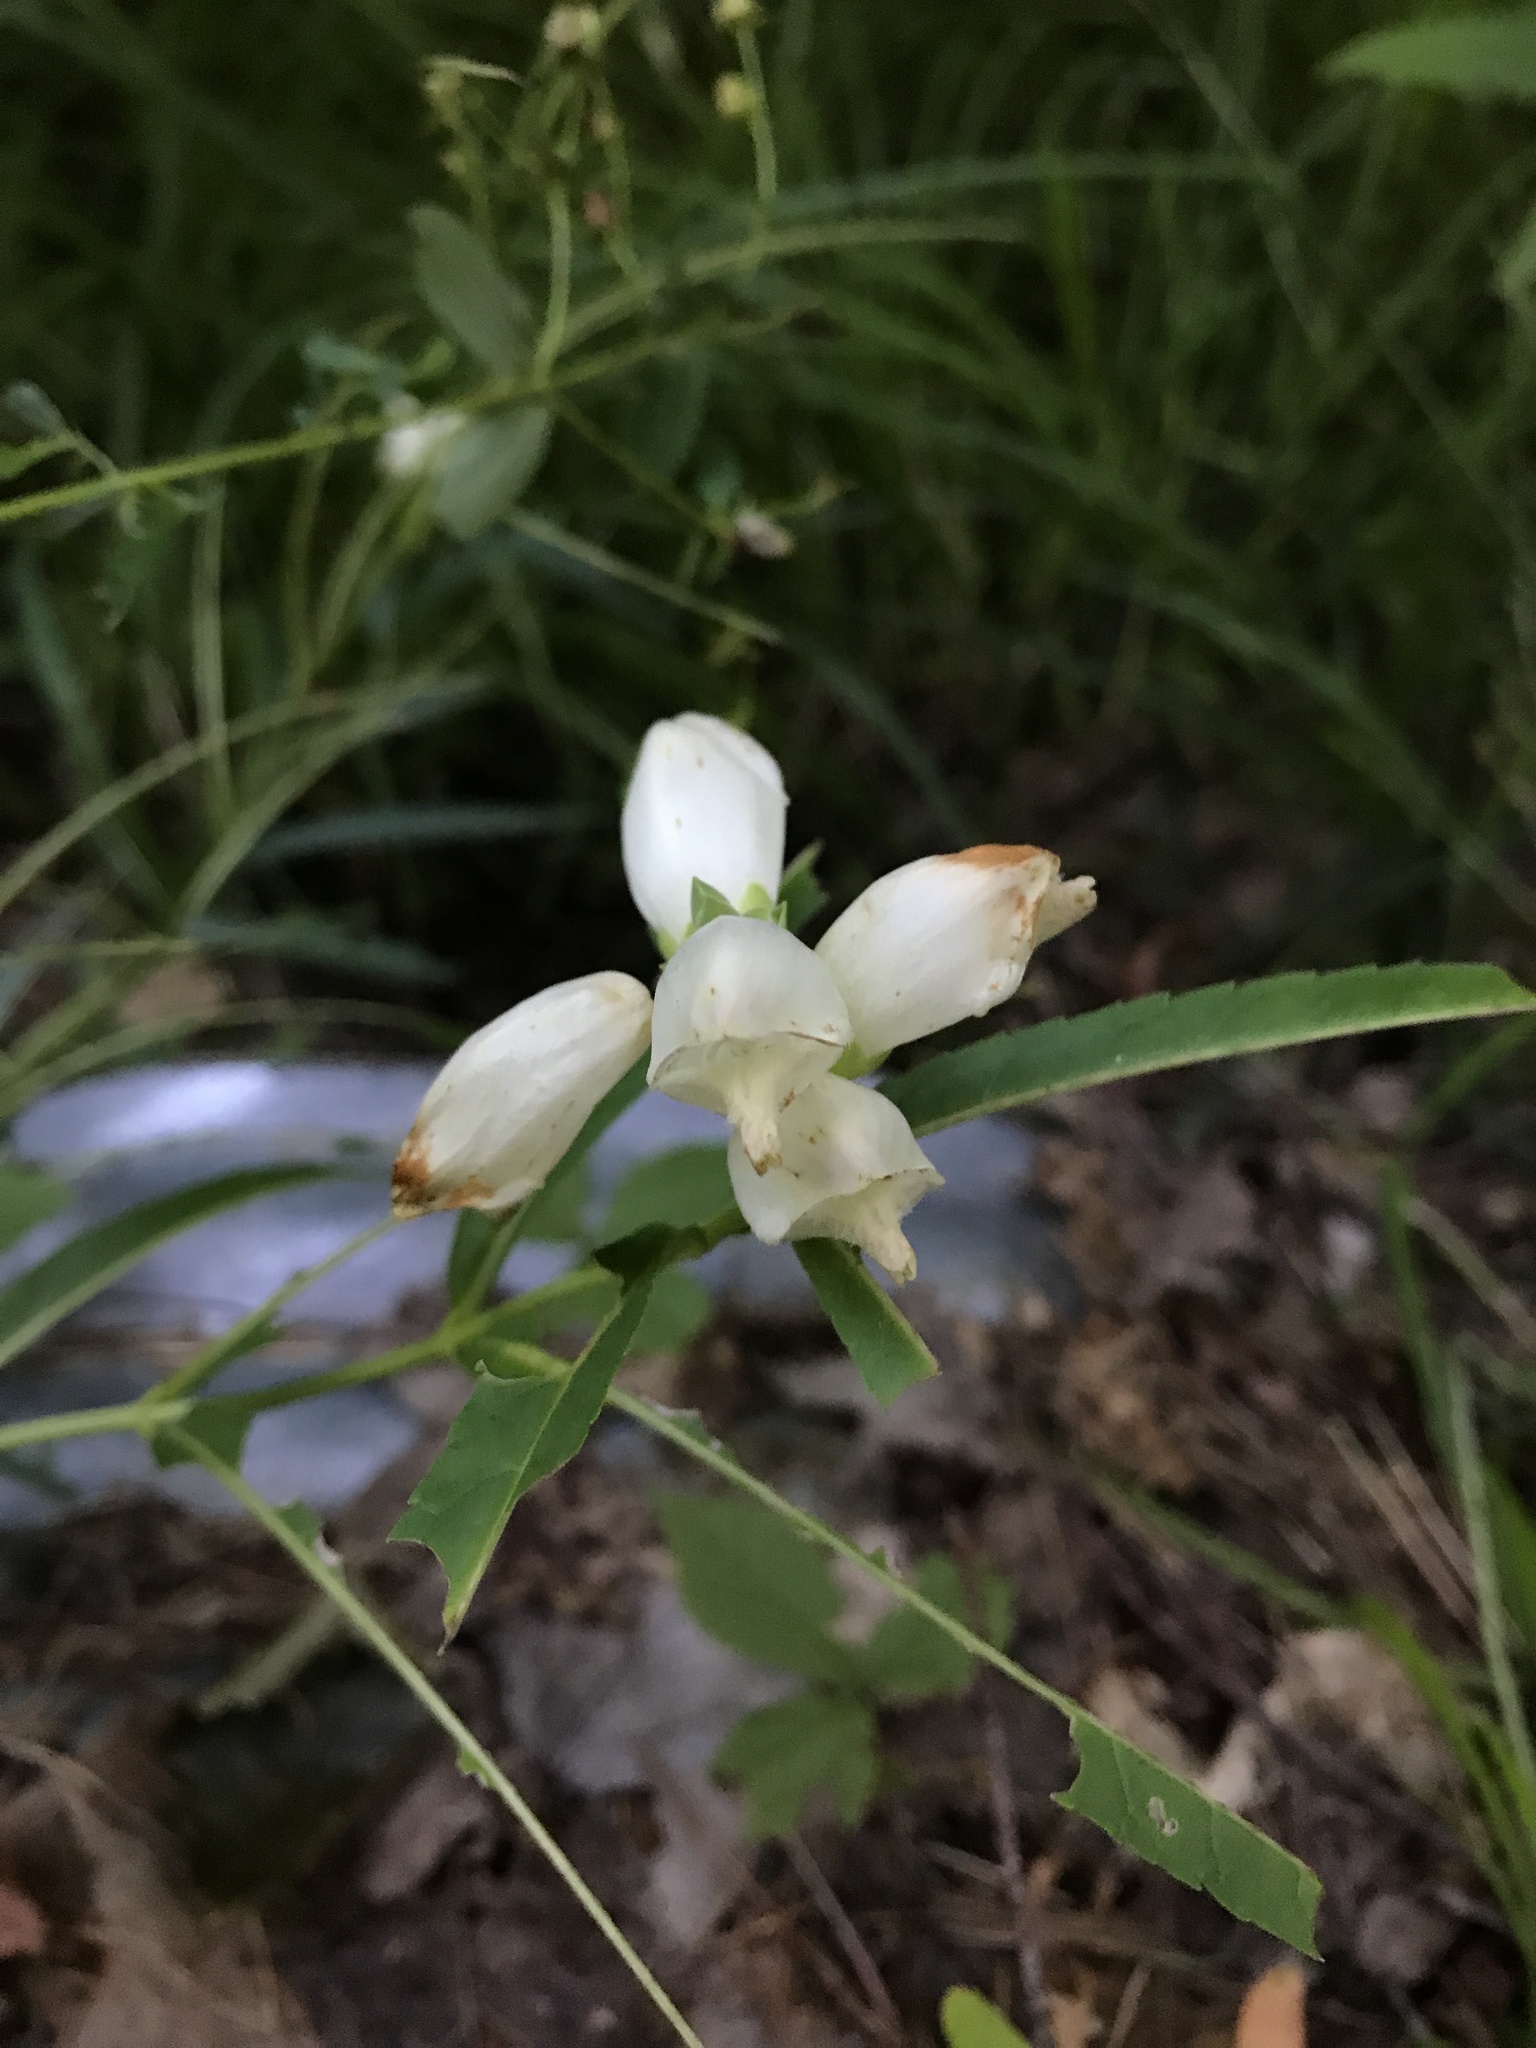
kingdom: Plantae
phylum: Tracheophyta
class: Magnoliopsida
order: Lamiales
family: Plantaginaceae
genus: Chelone
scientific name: Chelone glabra
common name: Snakehead
